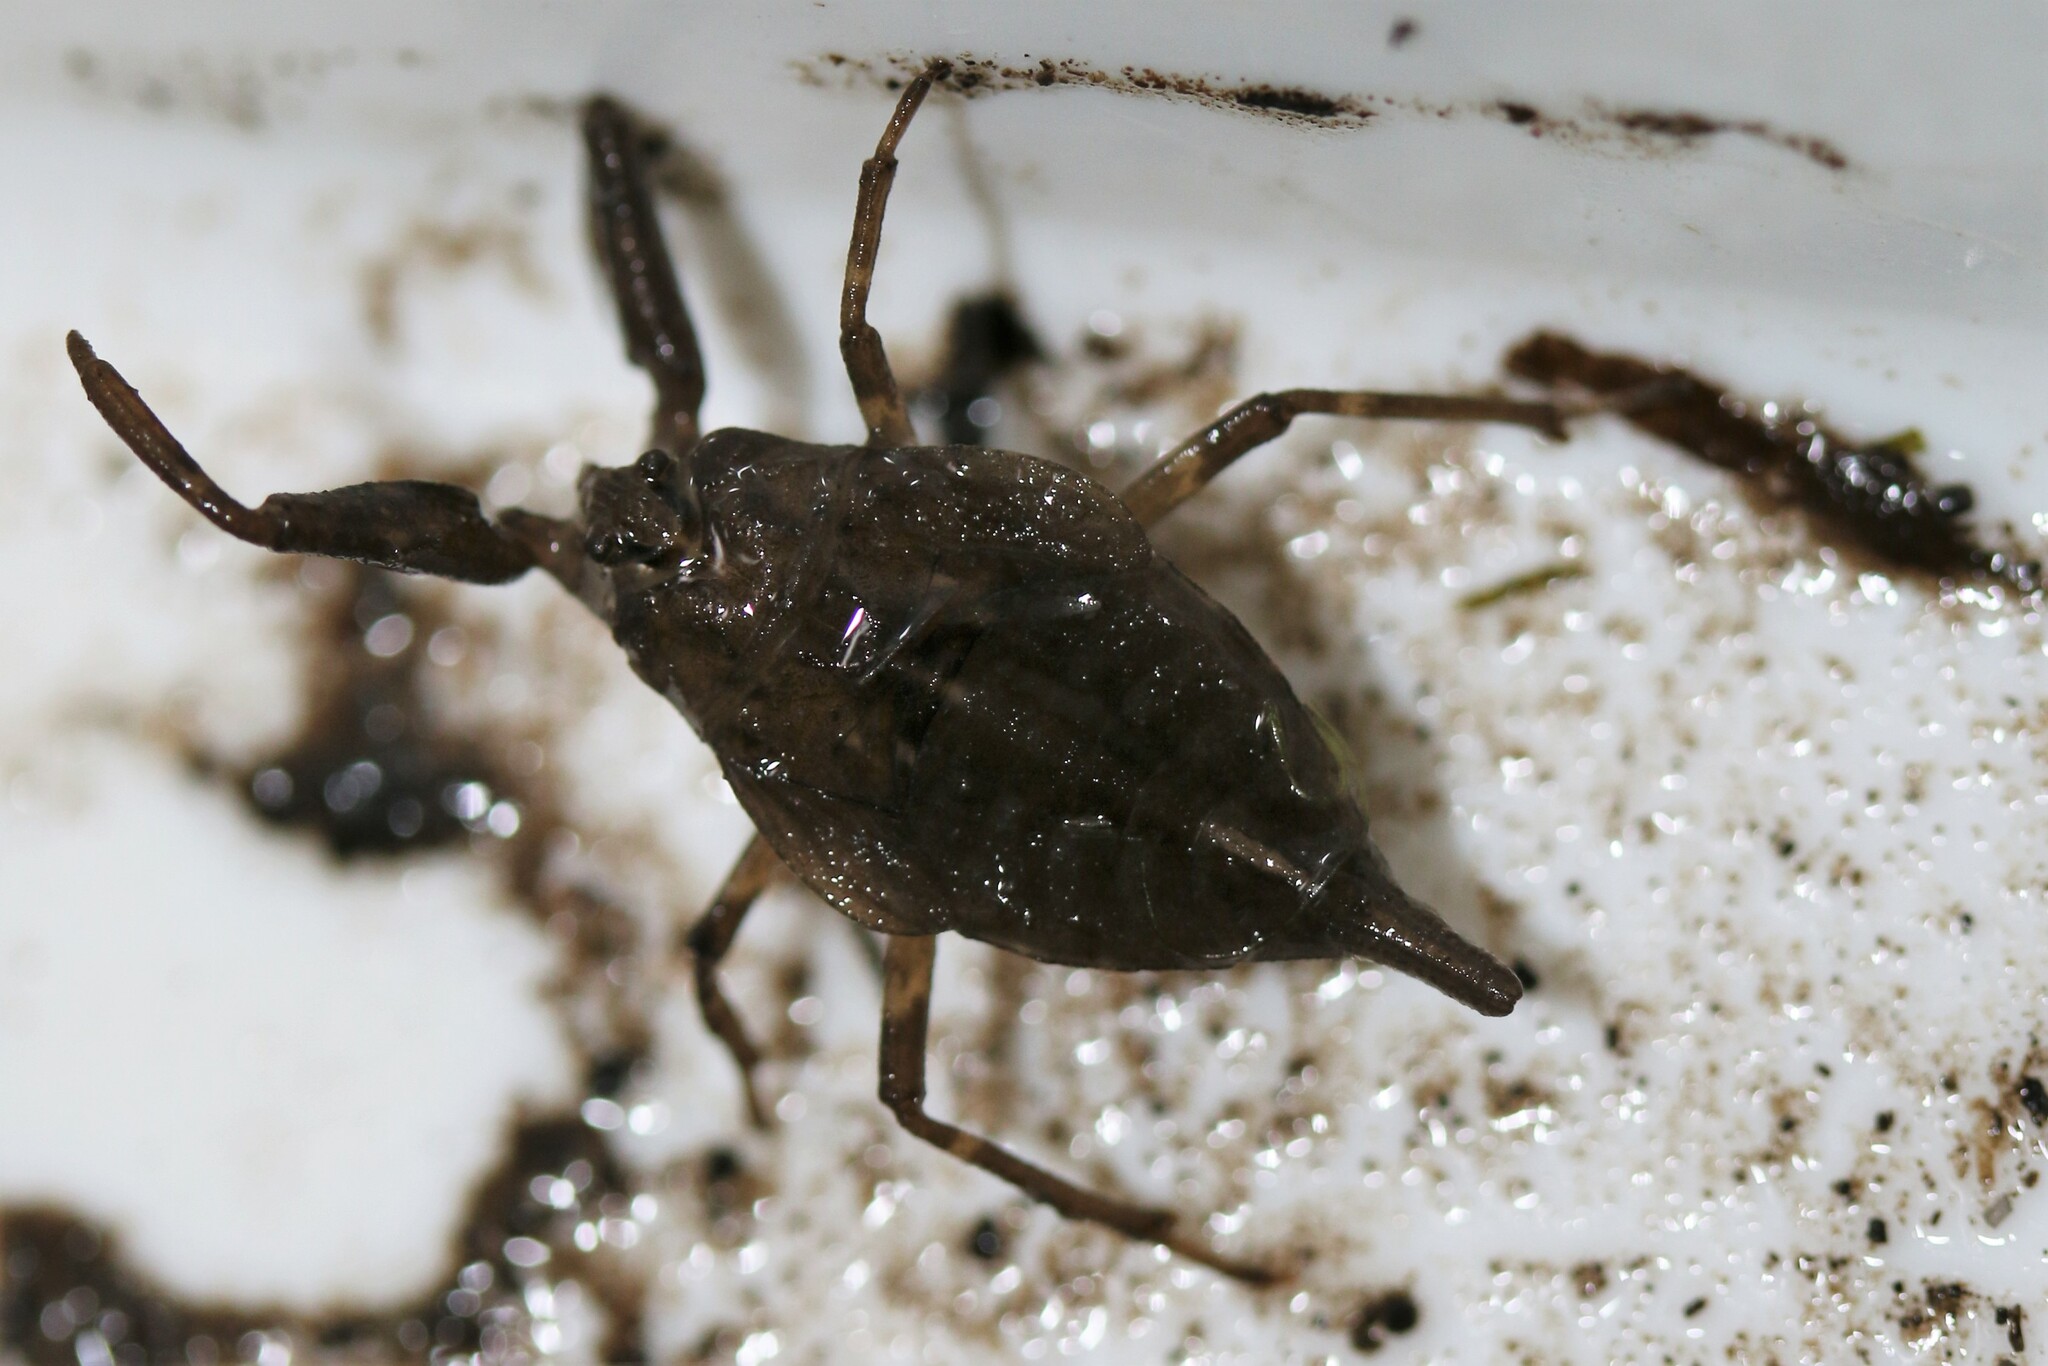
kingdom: Animalia
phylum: Arthropoda
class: Insecta
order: Hemiptera
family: Nepidae
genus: Nepa
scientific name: Nepa cinerea
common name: Water scorpion
